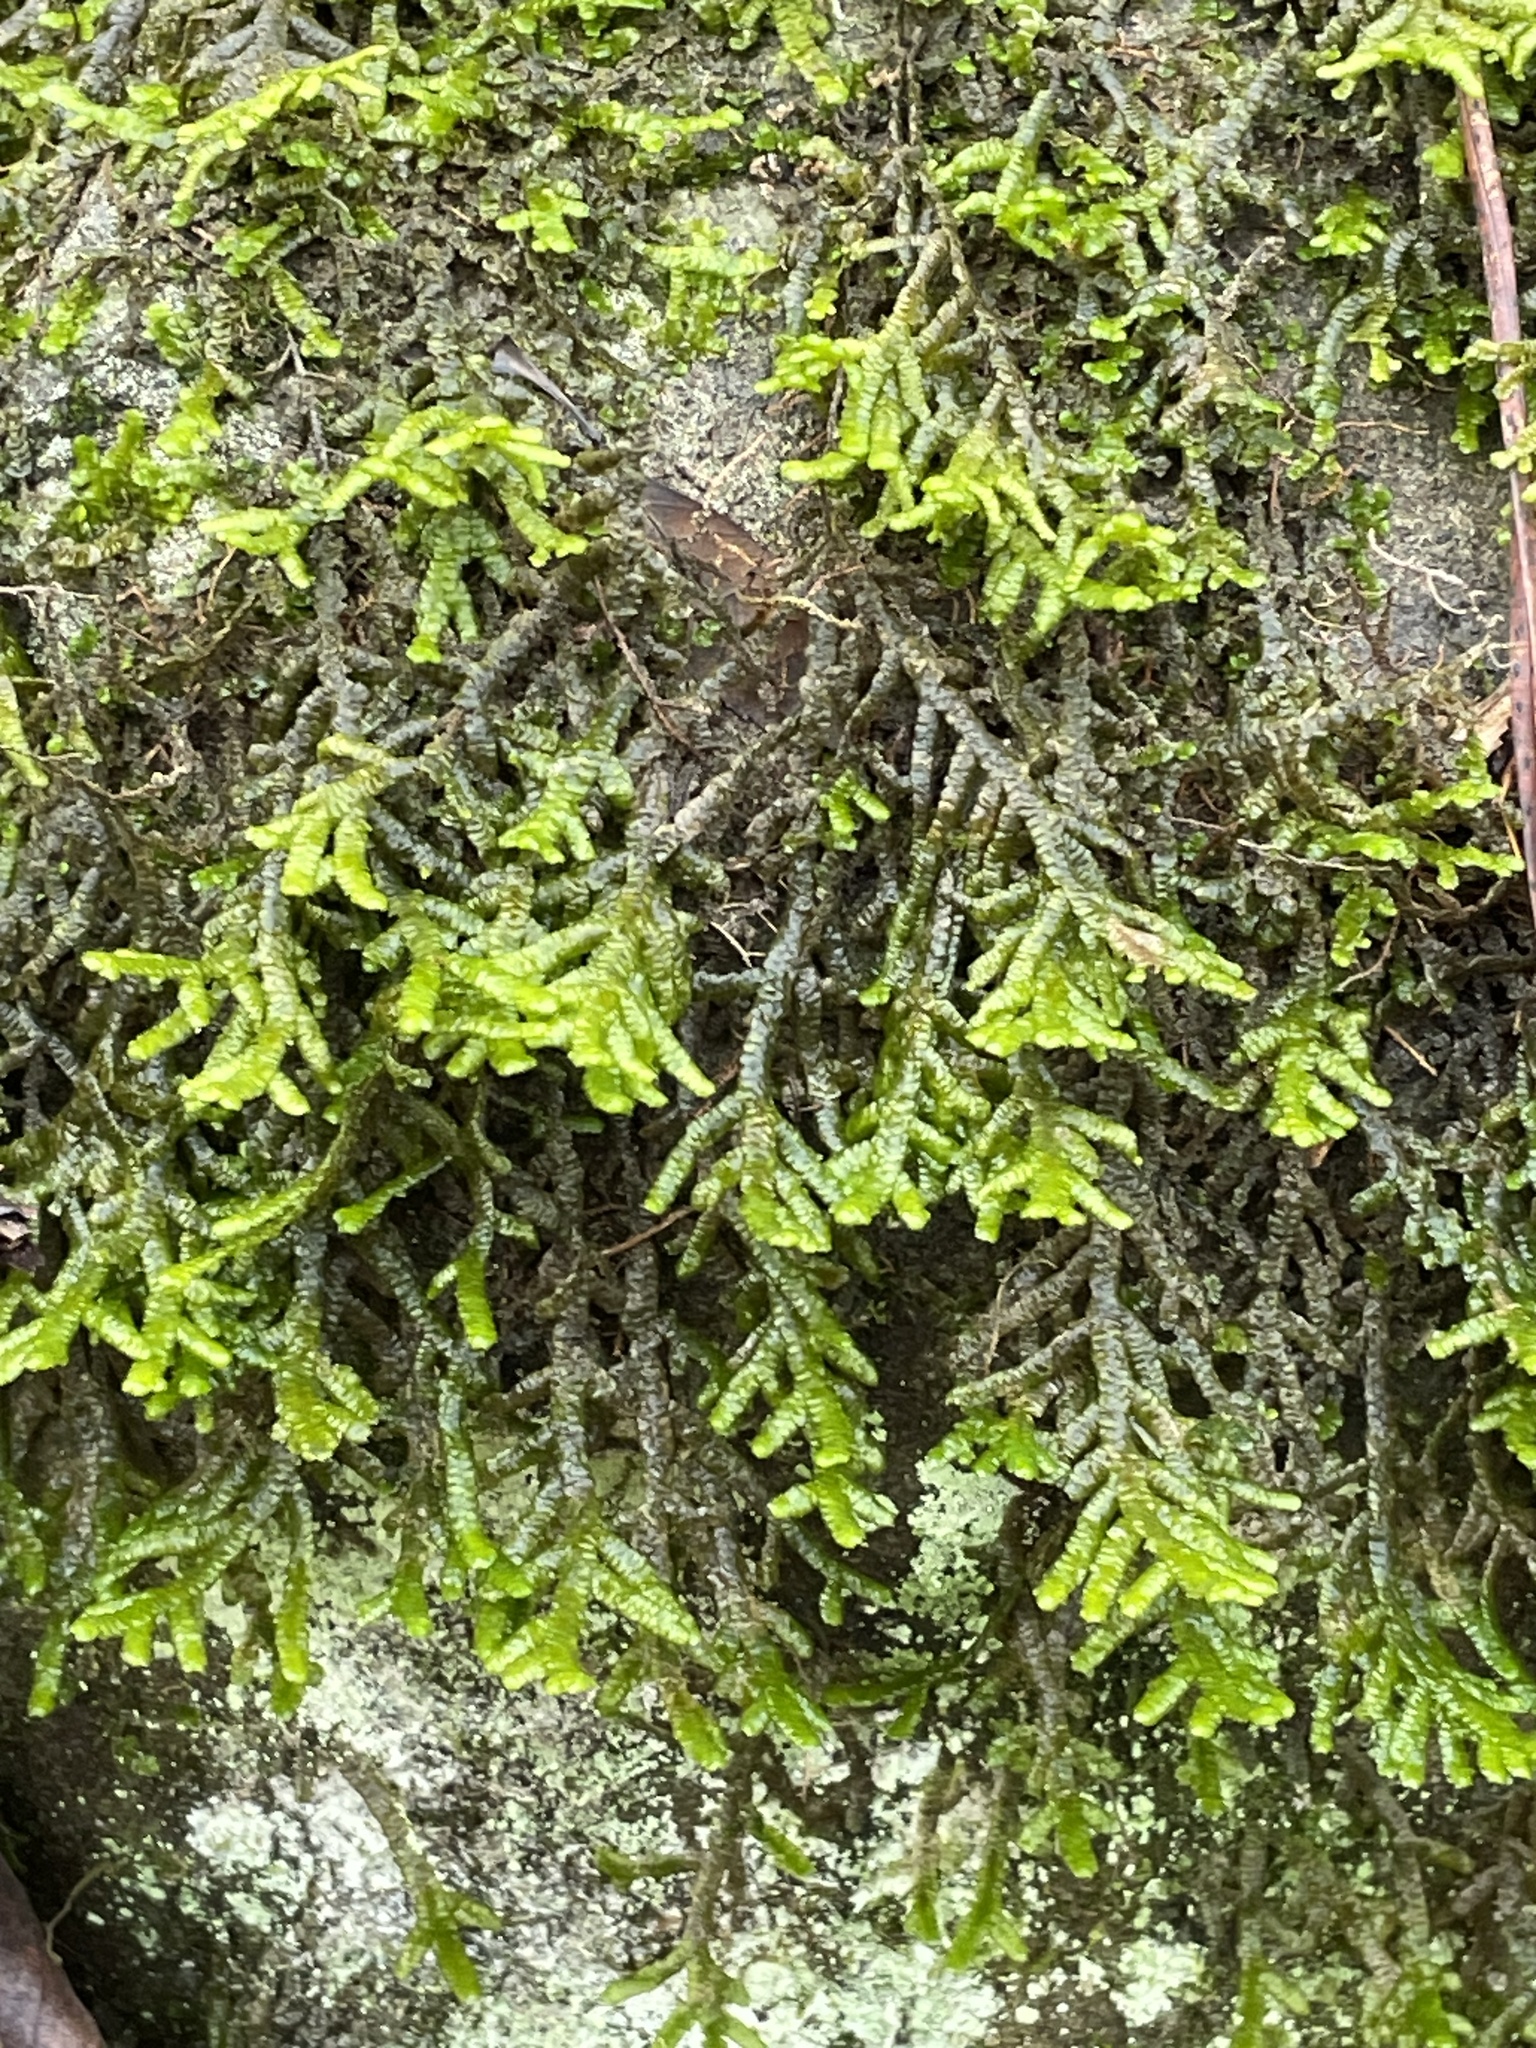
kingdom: Plantae
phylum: Marchantiophyta
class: Jungermanniopsida
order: Porellales
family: Porellaceae
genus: Porella
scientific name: Porella platyphylla
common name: Wall scalewort
